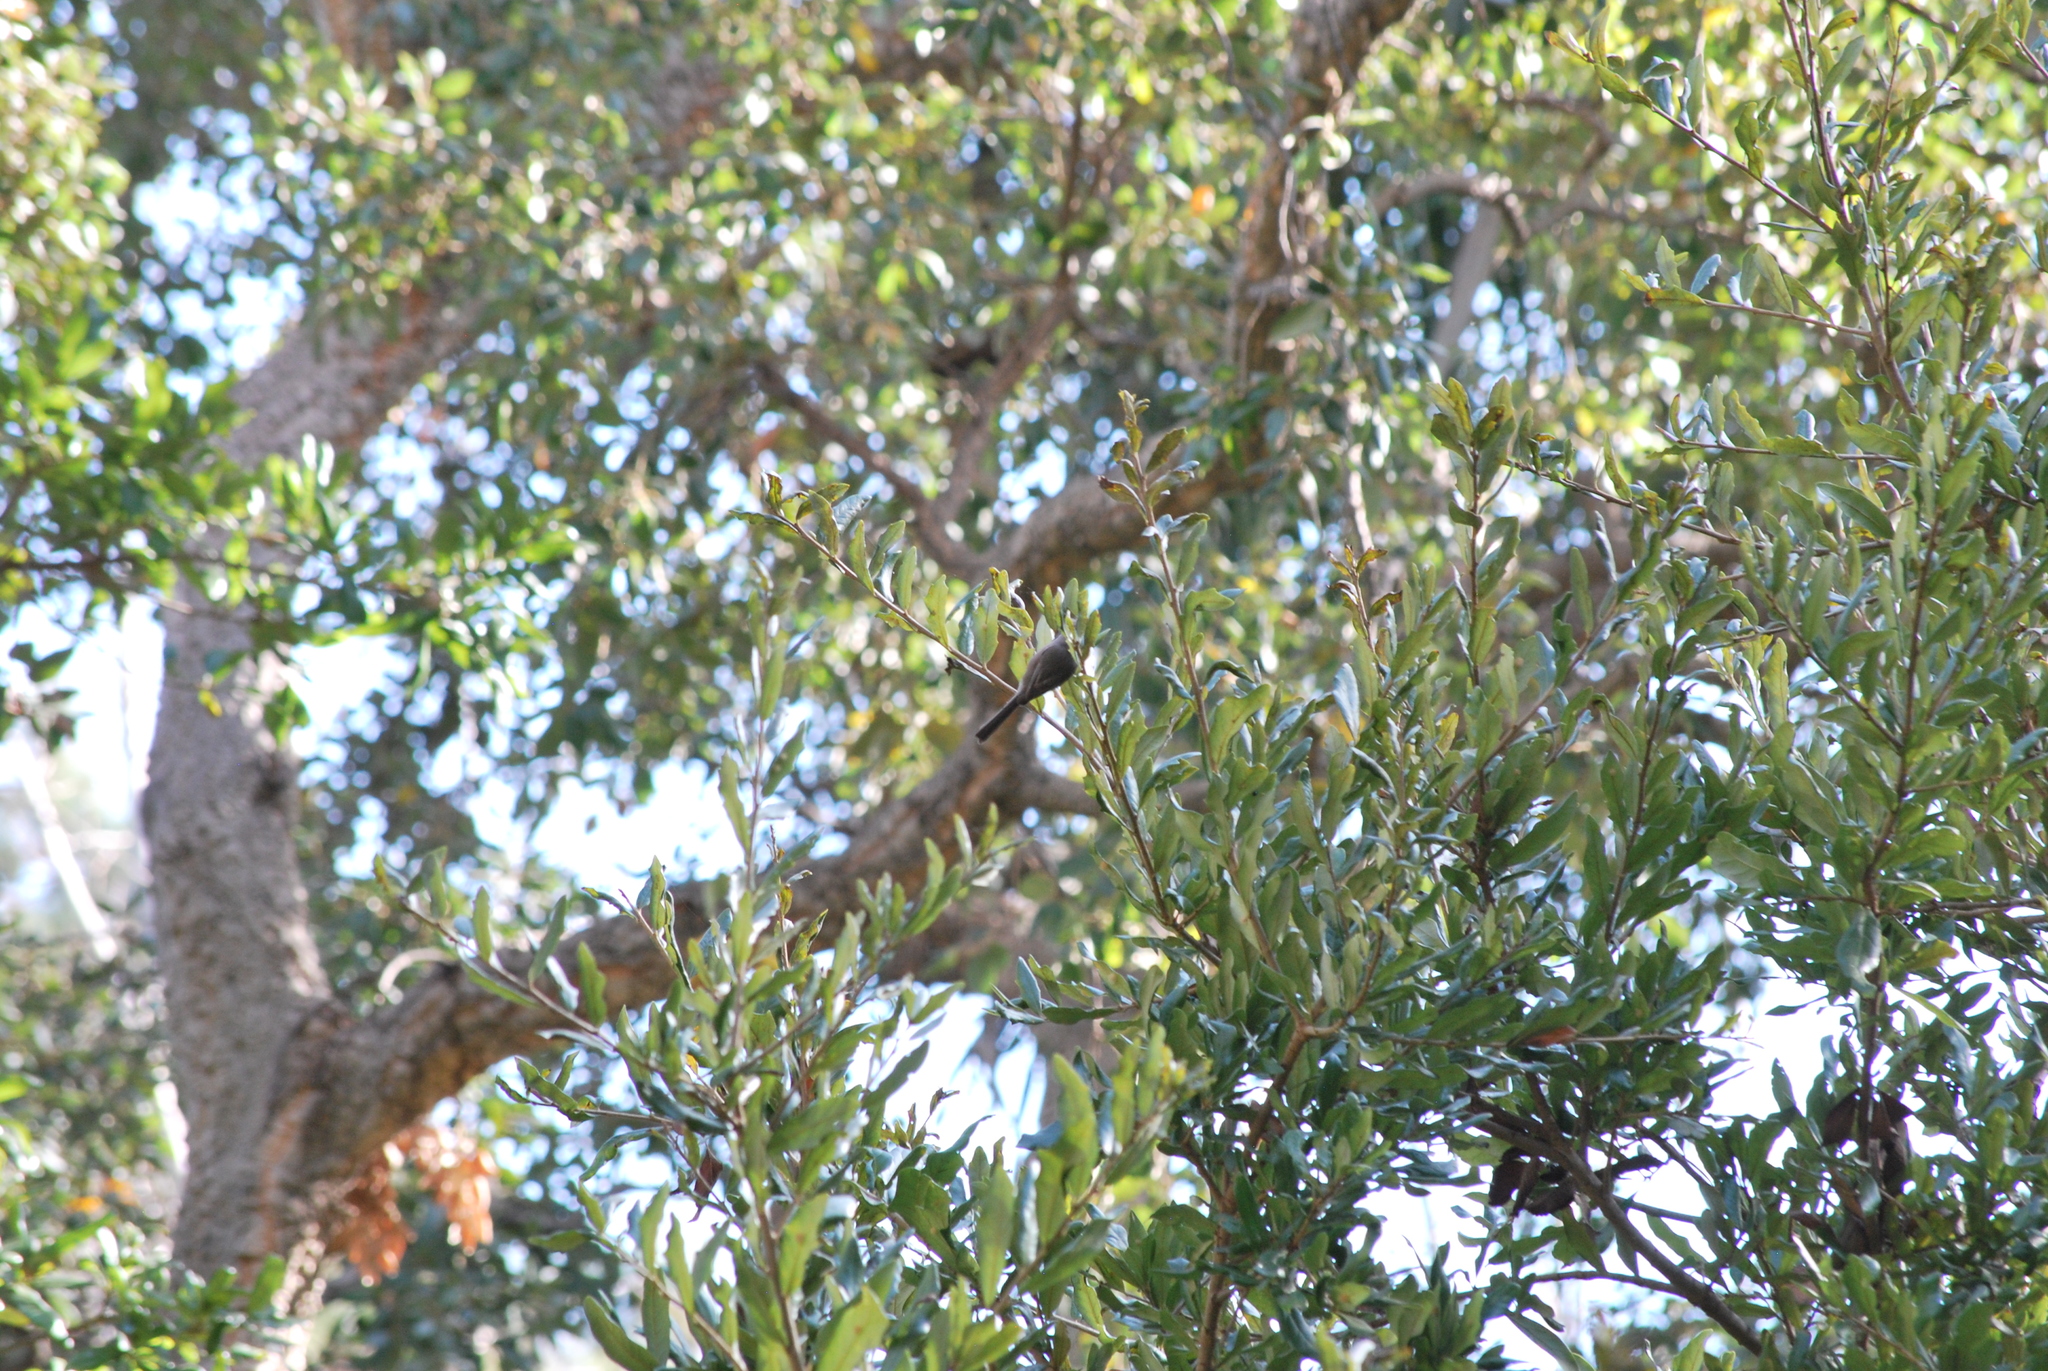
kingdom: Animalia
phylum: Chordata
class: Aves
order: Passeriformes
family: Aegithalidae
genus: Psaltriparus
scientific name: Psaltriparus minimus
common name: American bushtit
